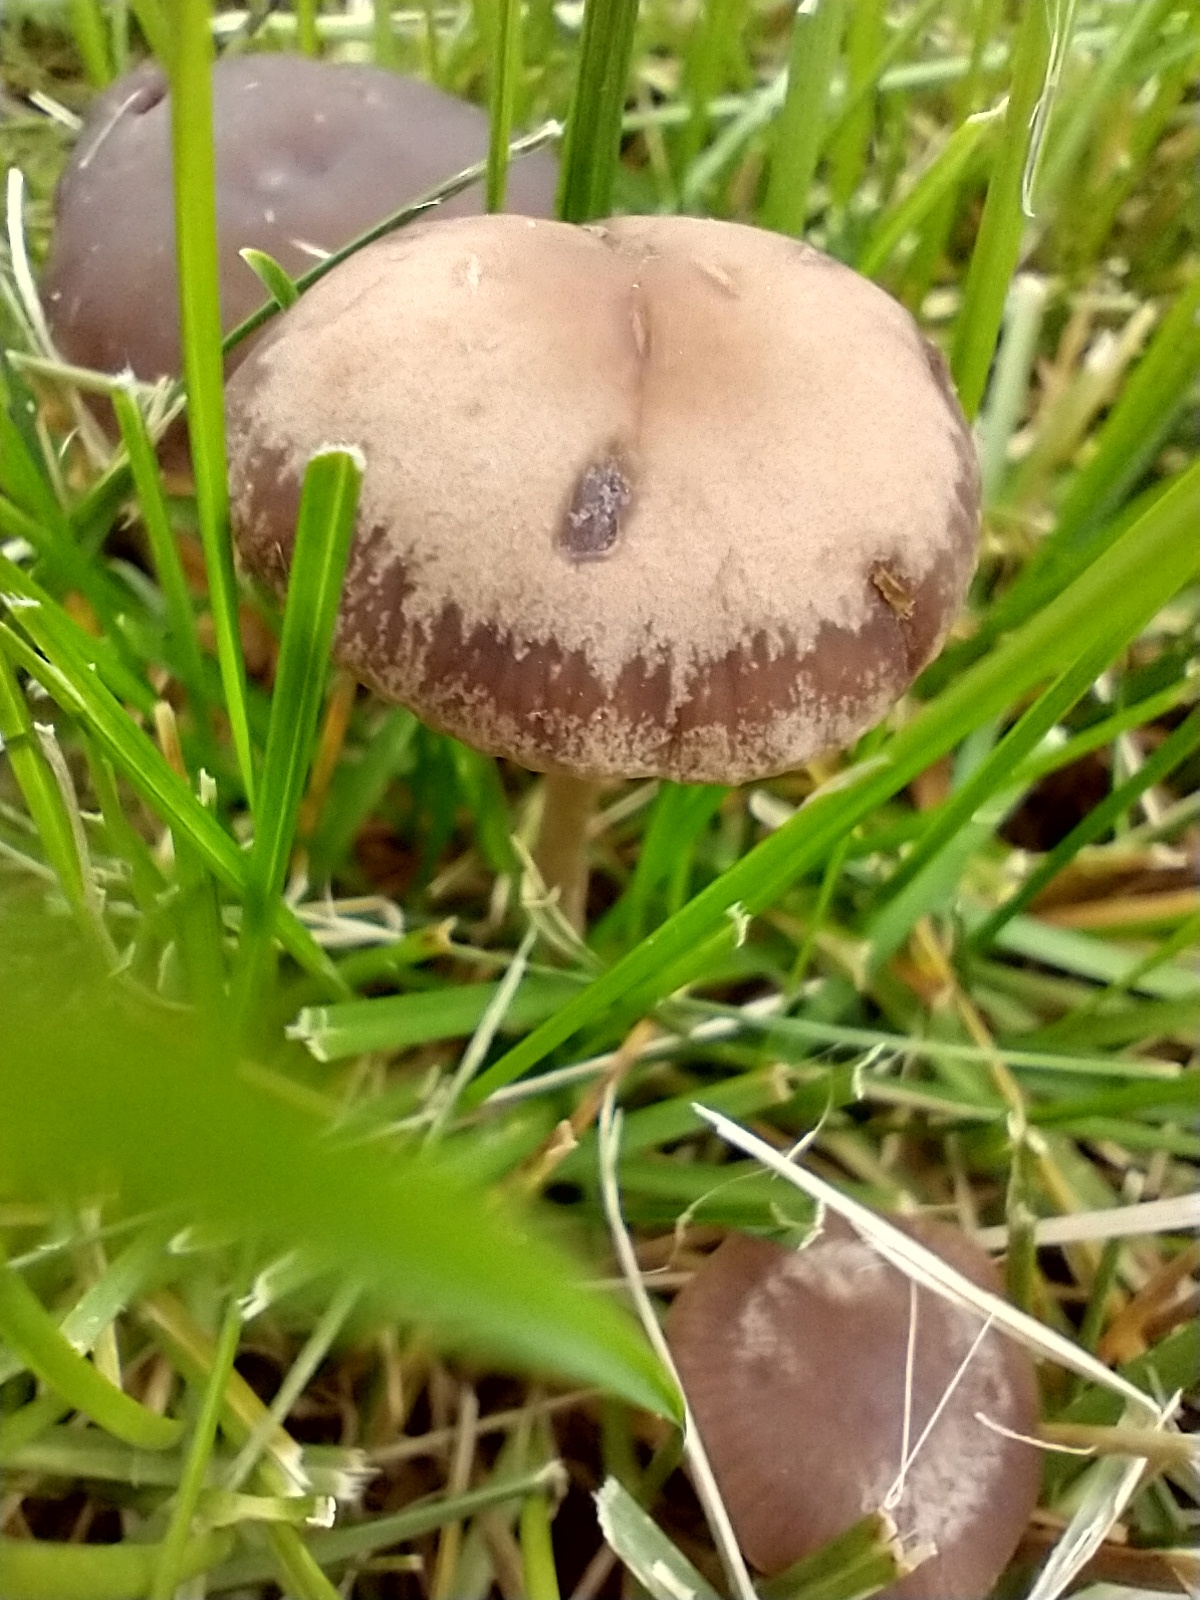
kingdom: Fungi
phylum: Basidiomycota
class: Agaricomycetes
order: Agaricales
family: Bolbitiaceae
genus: Panaeolina
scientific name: Panaeolina foenisecii
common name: Brown hay cap
